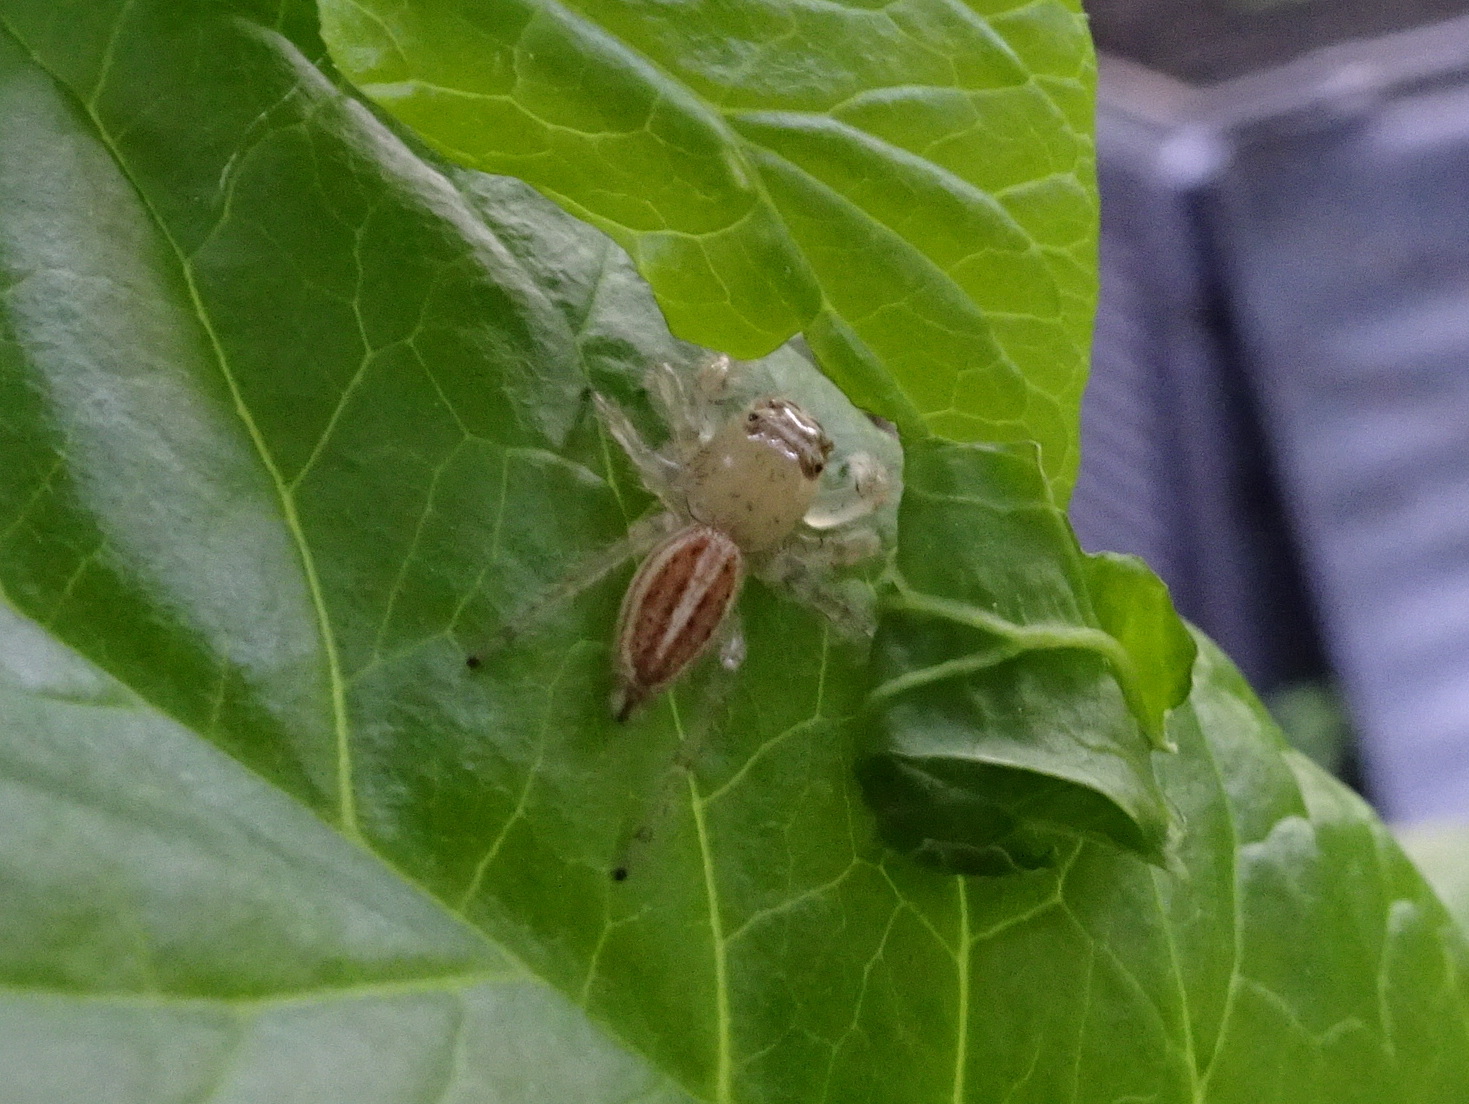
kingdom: Animalia
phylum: Arthropoda
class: Arachnida
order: Araneae
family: Salticidae
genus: Colonus
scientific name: Colonus sylvanus
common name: Jumping spiders
